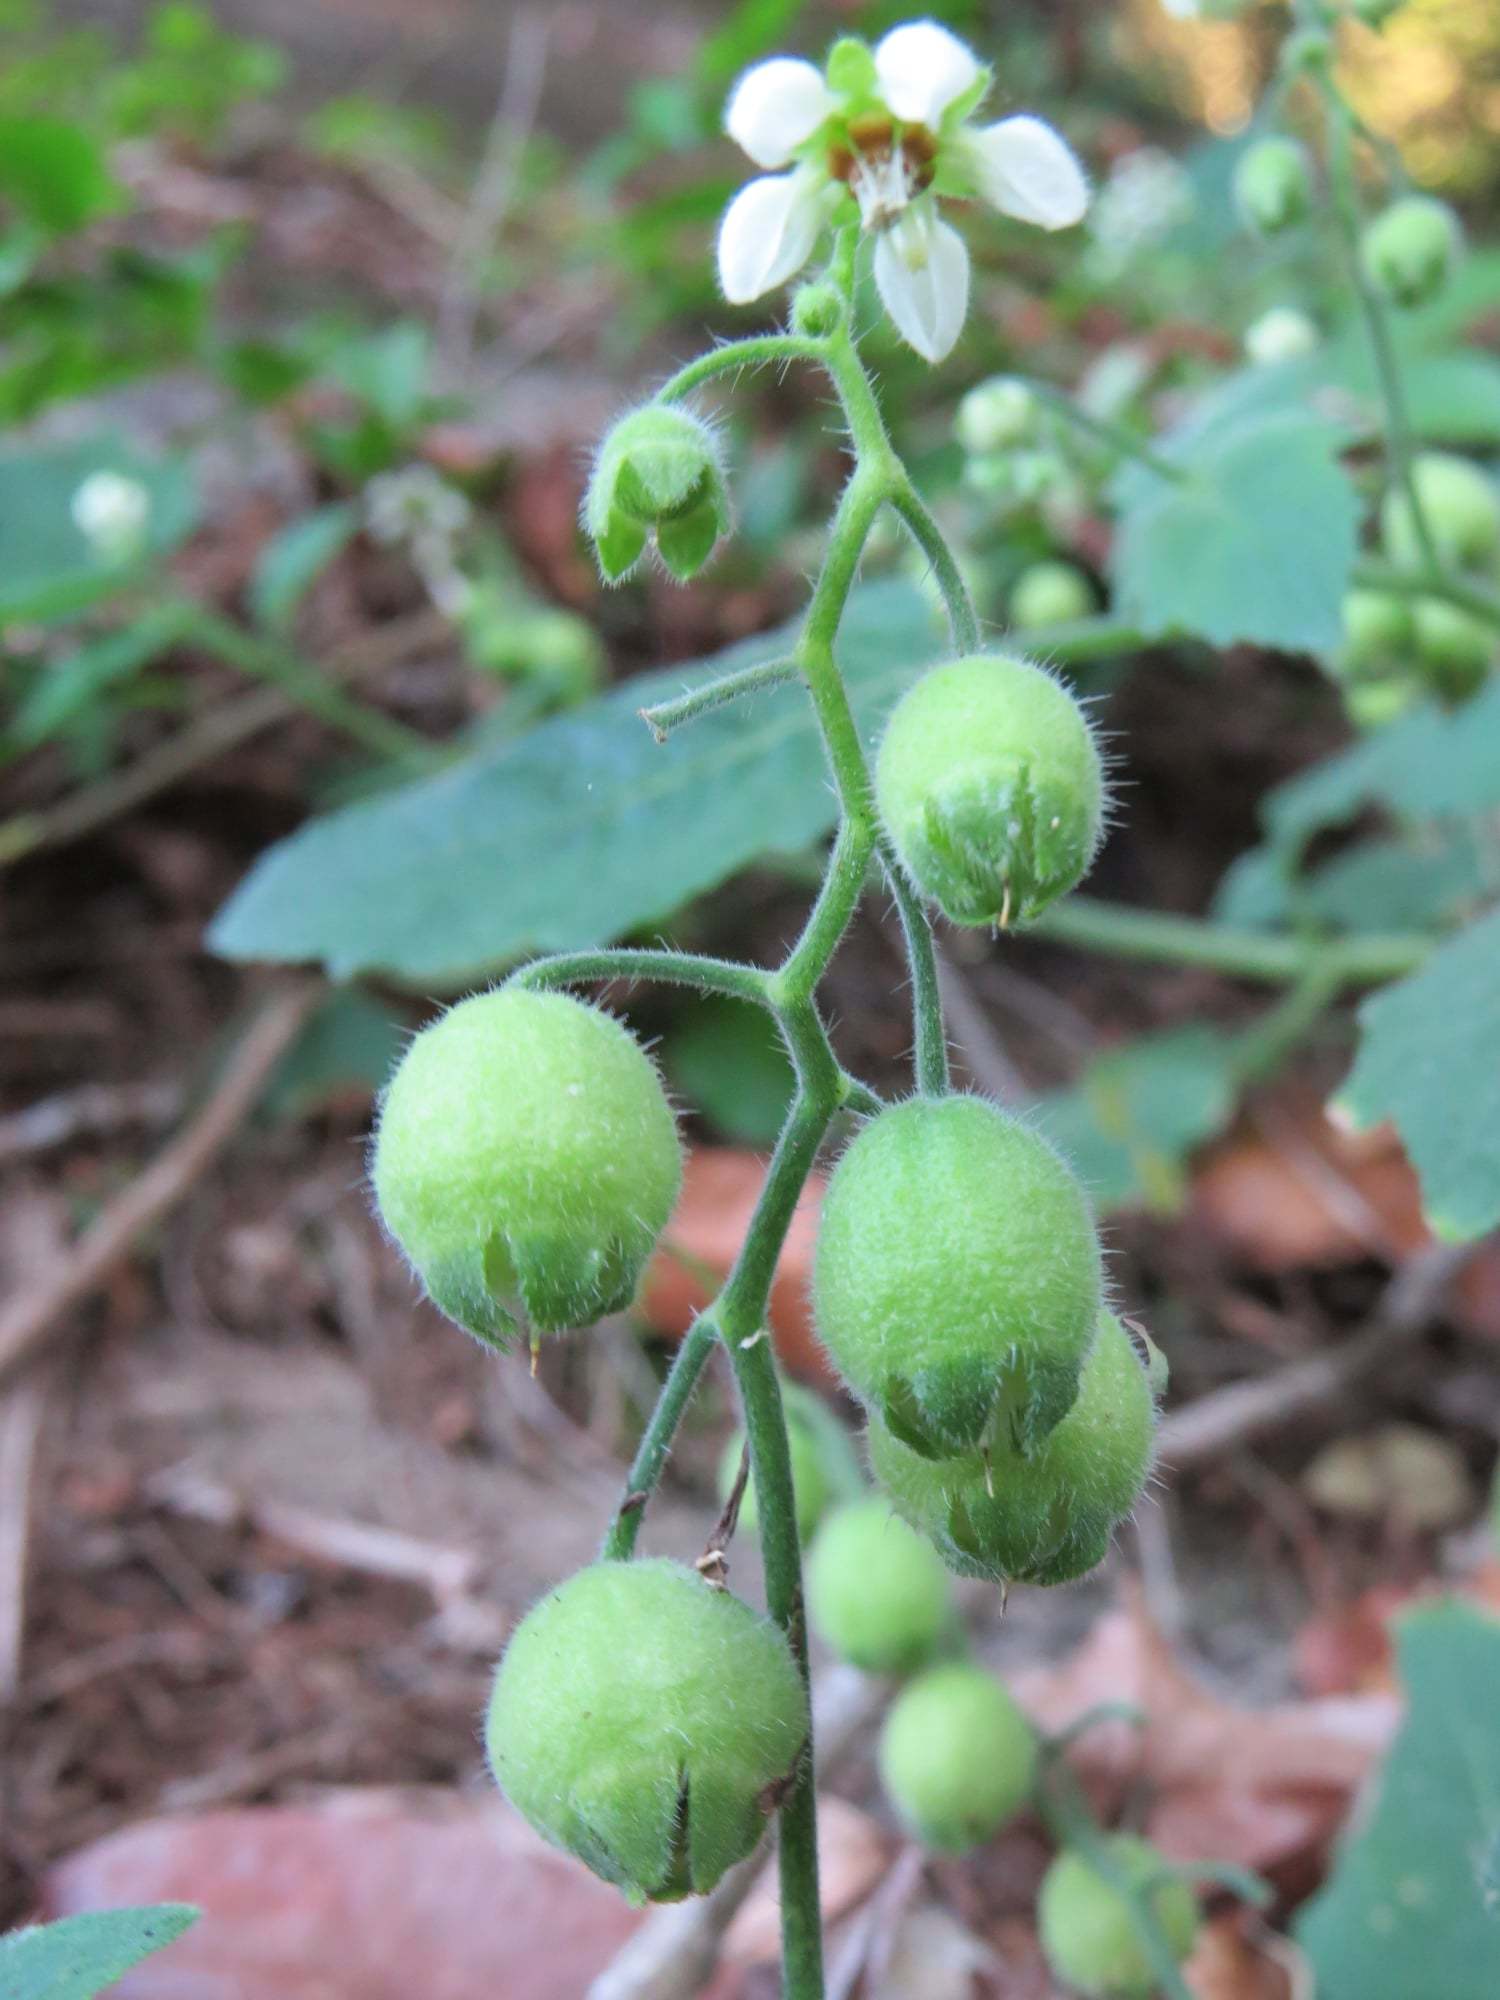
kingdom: Plantae
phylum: Tracheophyta
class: Magnoliopsida
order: Cornales
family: Loasaceae
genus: Aosa
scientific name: Aosa parviflora
